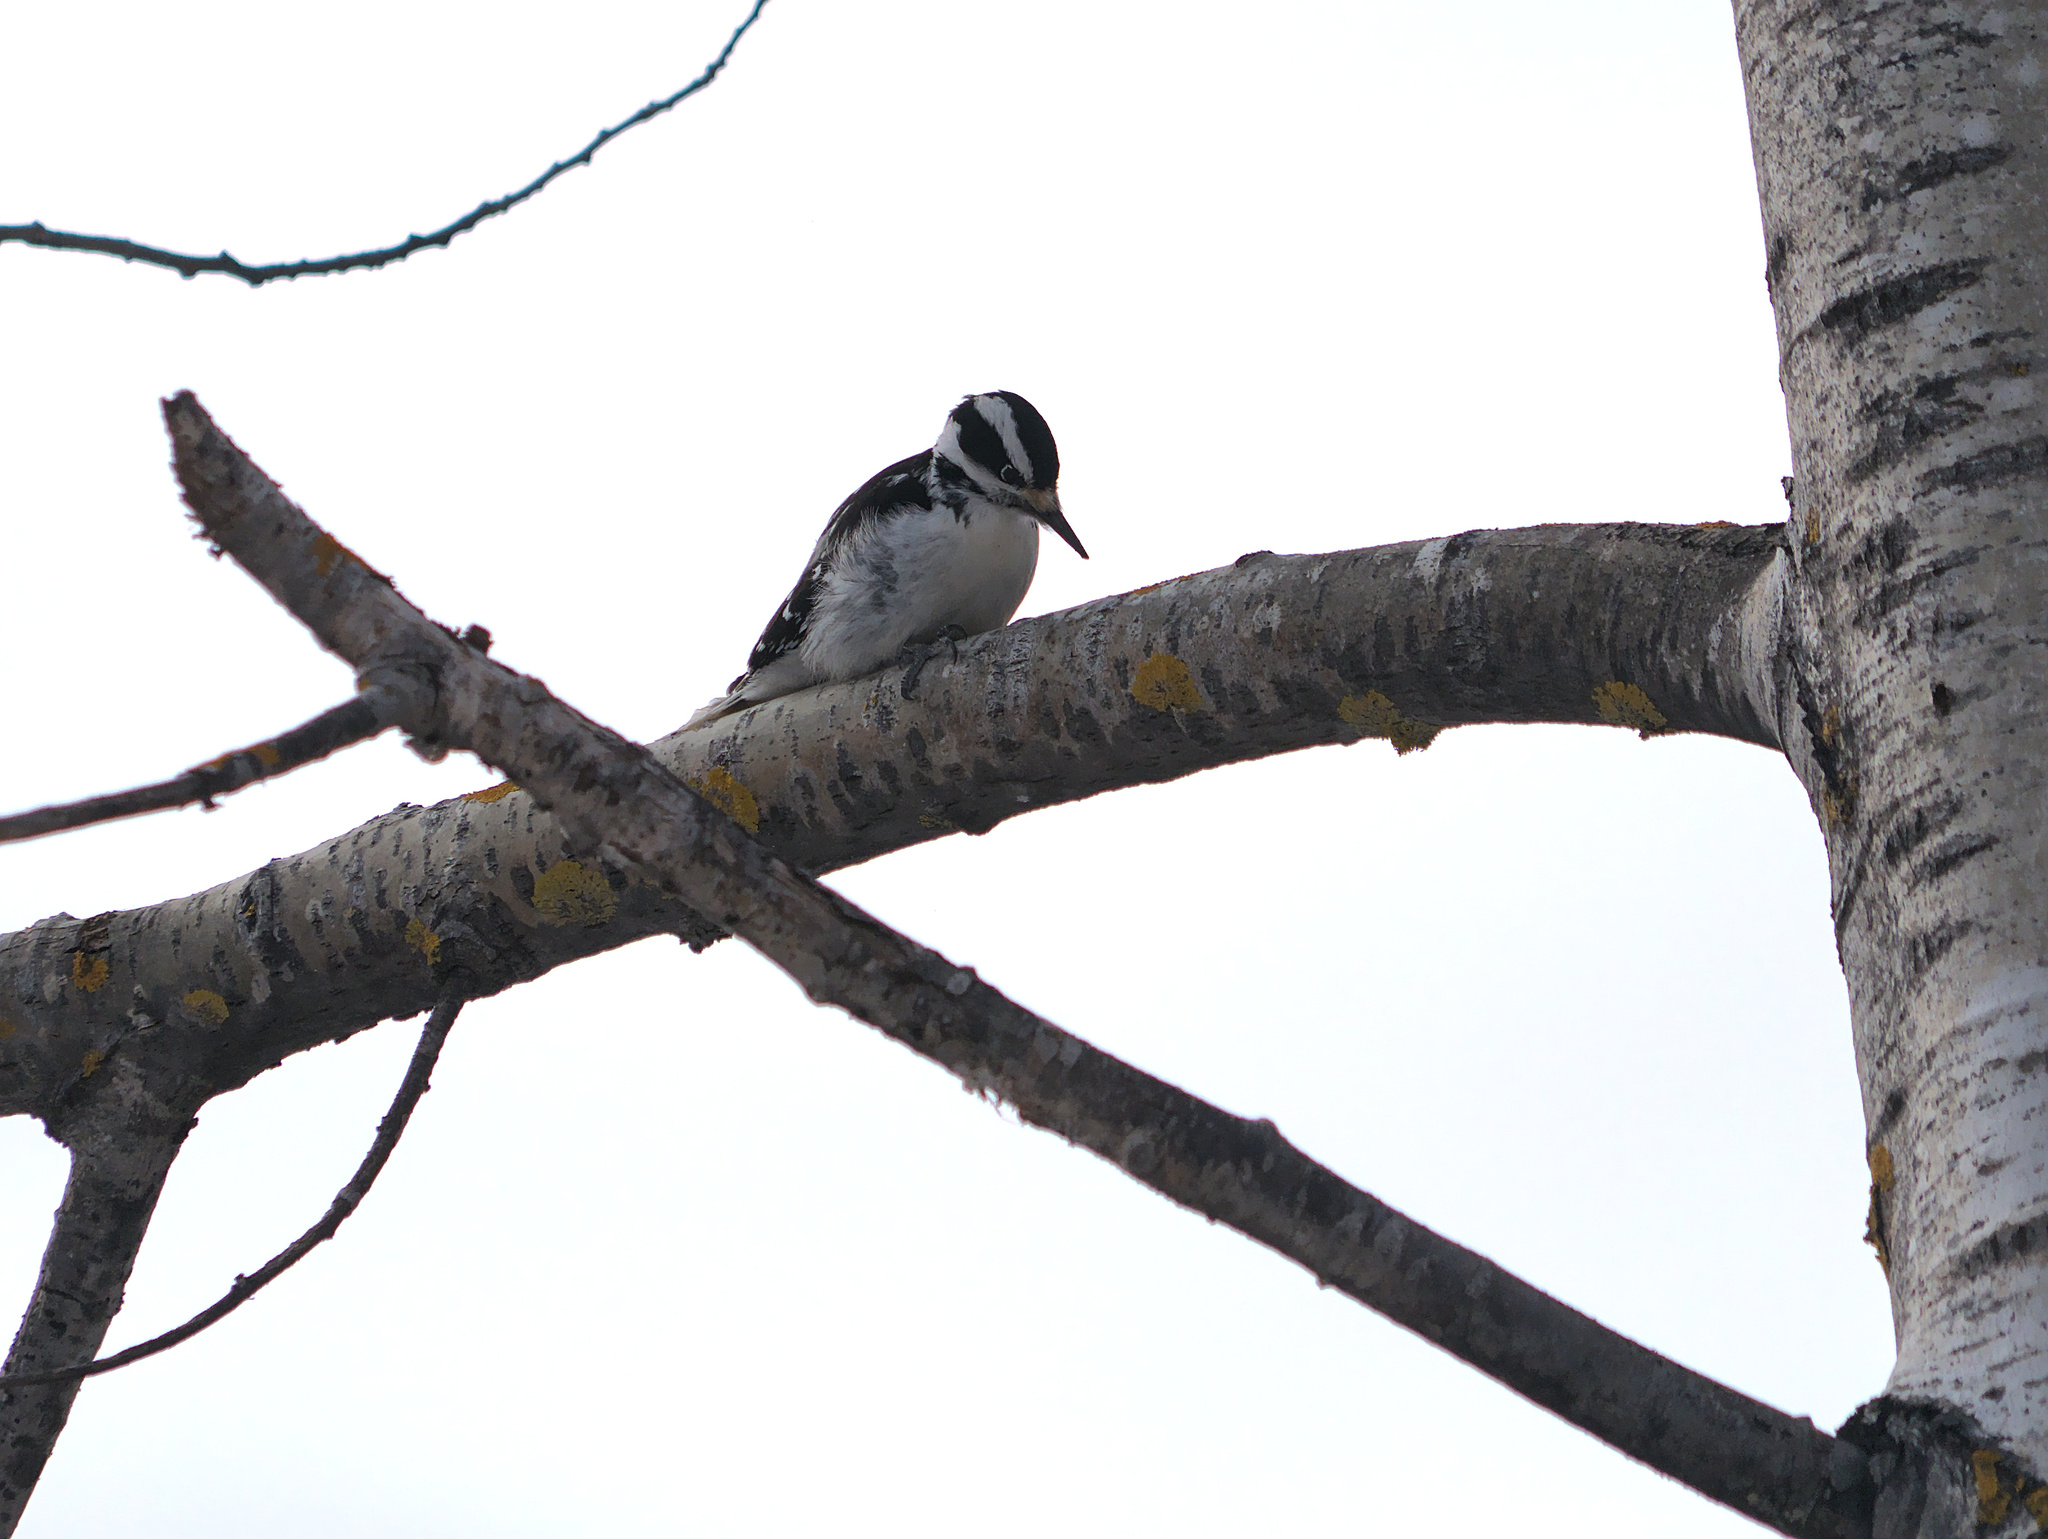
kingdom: Animalia
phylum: Chordata
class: Aves
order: Piciformes
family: Picidae
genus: Leuconotopicus
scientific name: Leuconotopicus villosus
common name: Hairy woodpecker
